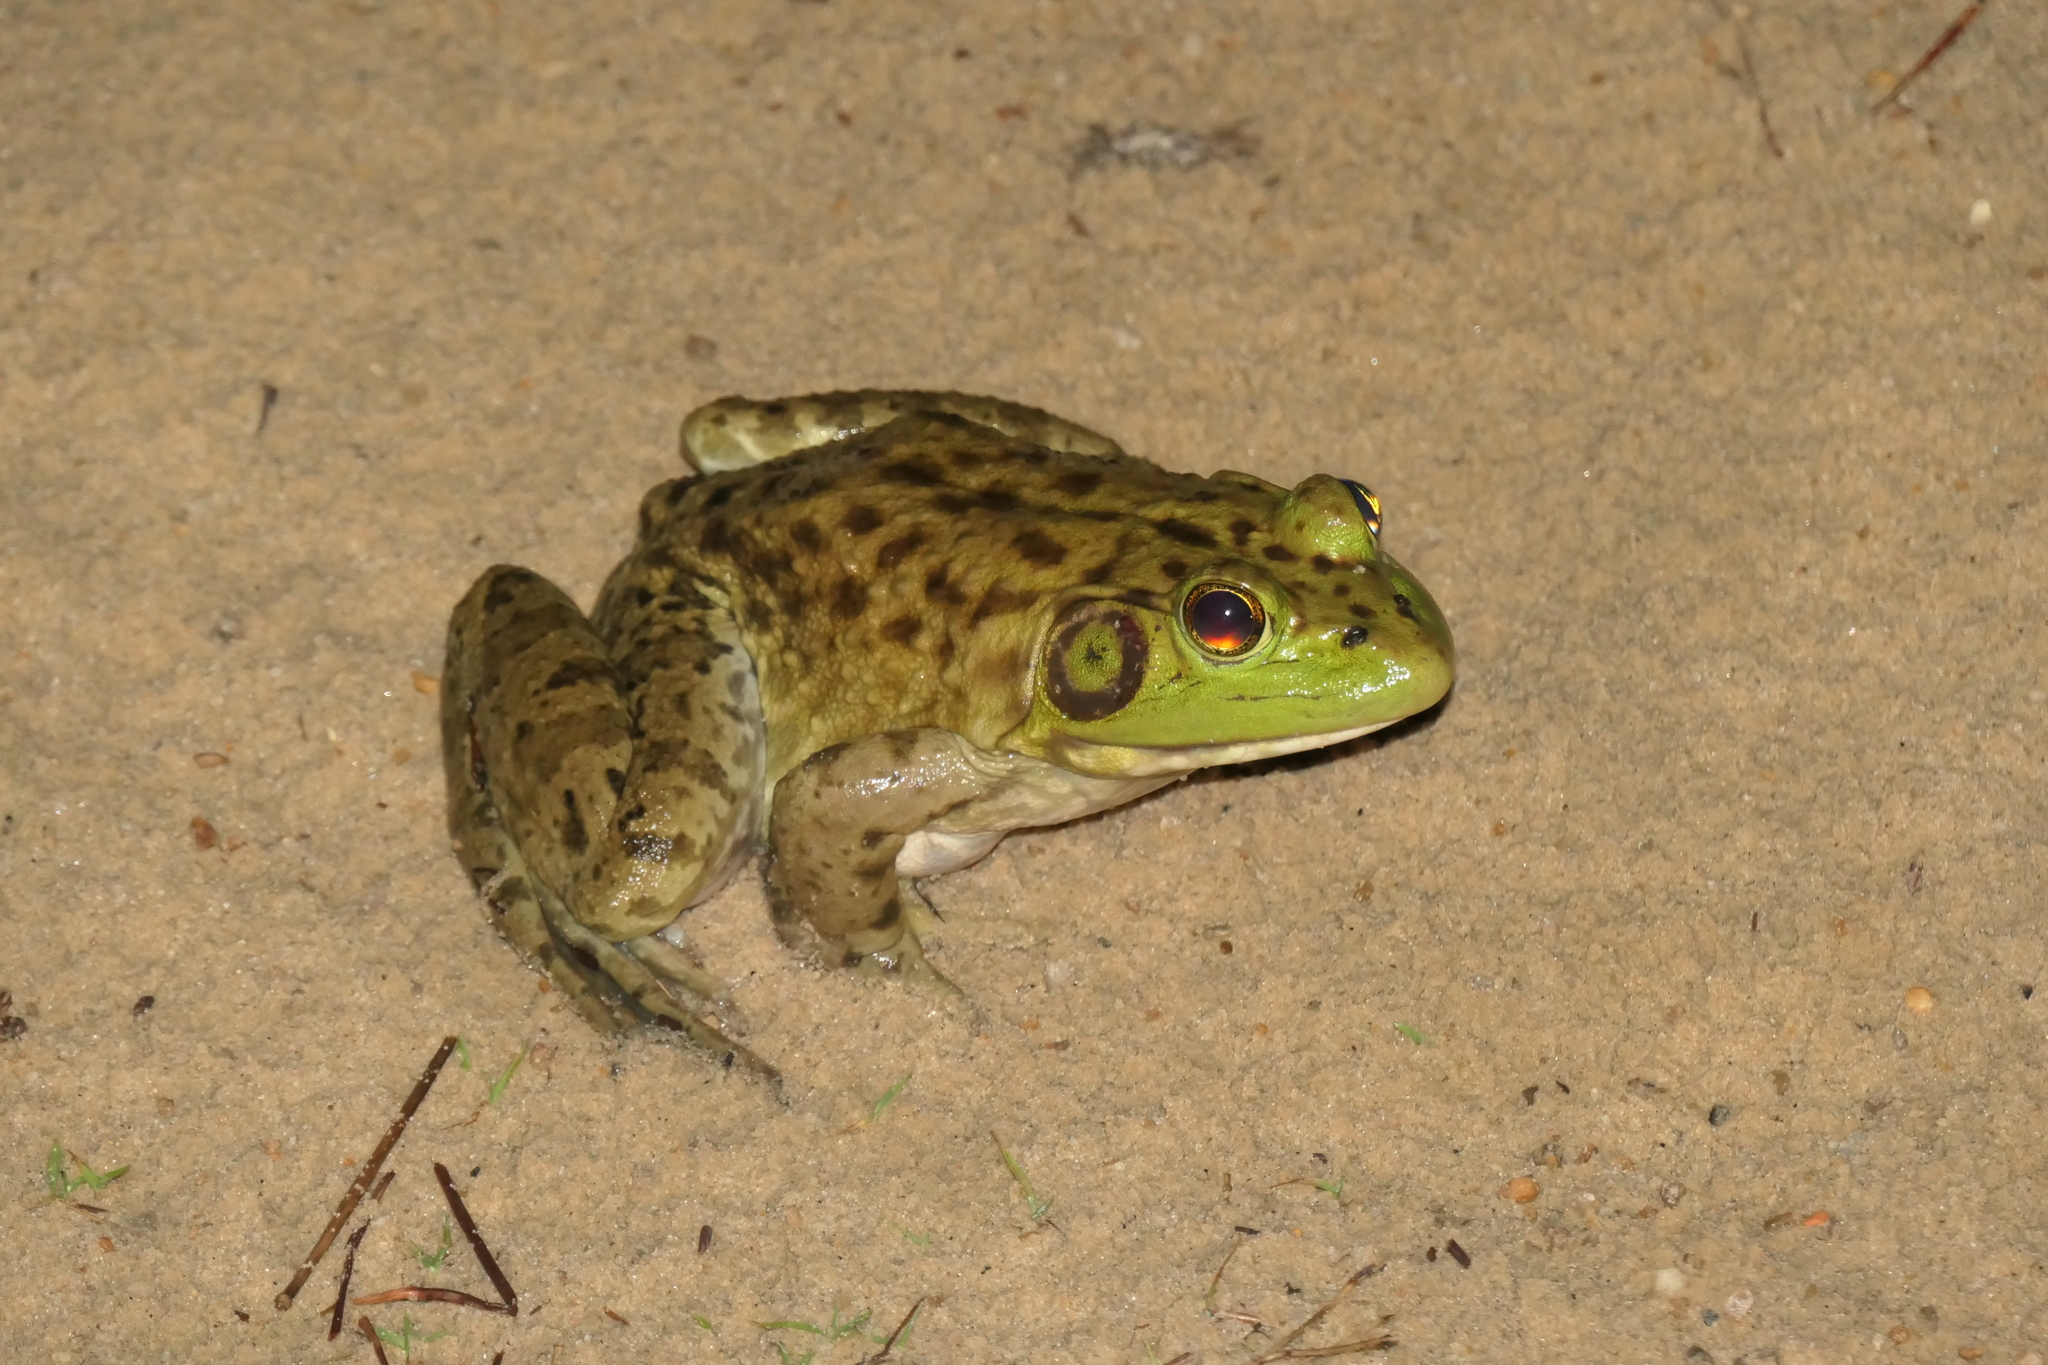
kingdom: Animalia
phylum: Chordata
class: Amphibia
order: Anura
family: Ranidae
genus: Lithobates
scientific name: Lithobates catesbeianus
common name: American bullfrog
